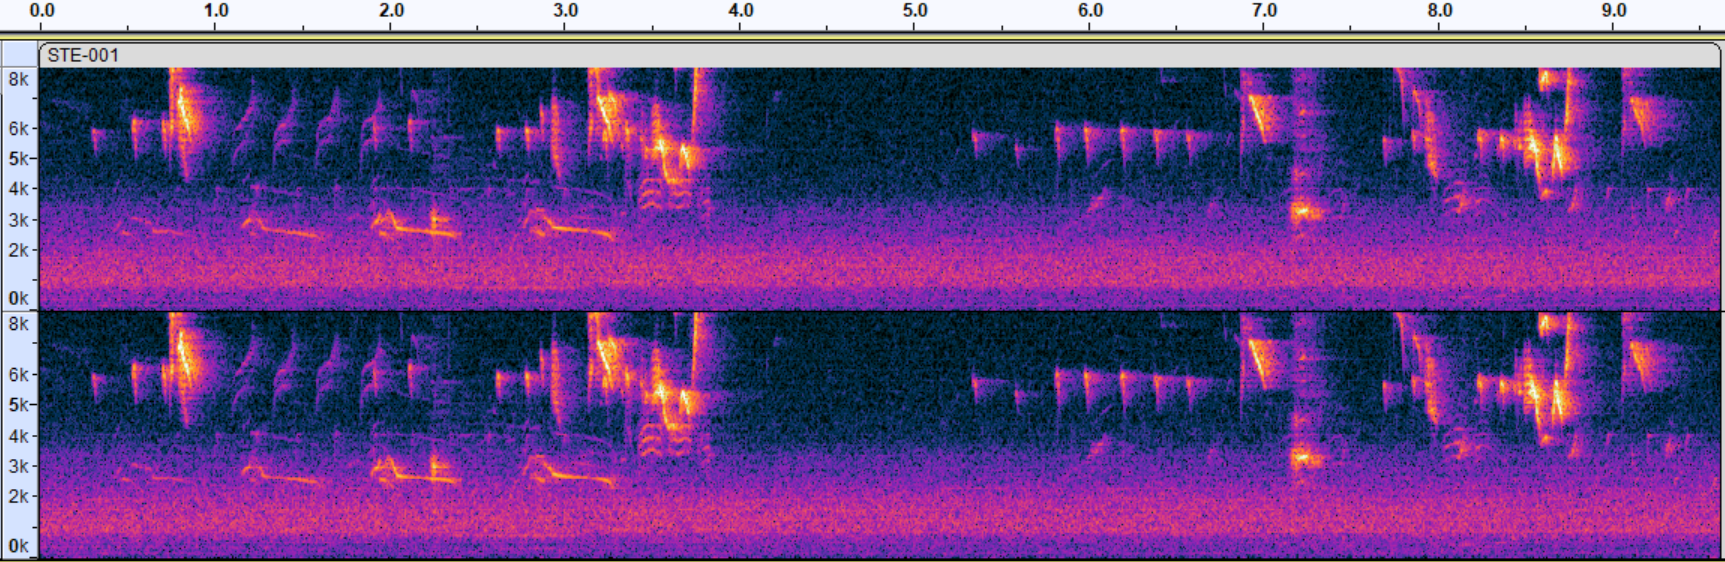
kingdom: Animalia
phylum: Chordata
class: Aves
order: Passeriformes
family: Tyrannidae
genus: Tyrannus
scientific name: Tyrannus tyrannus
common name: Eastern kingbird
